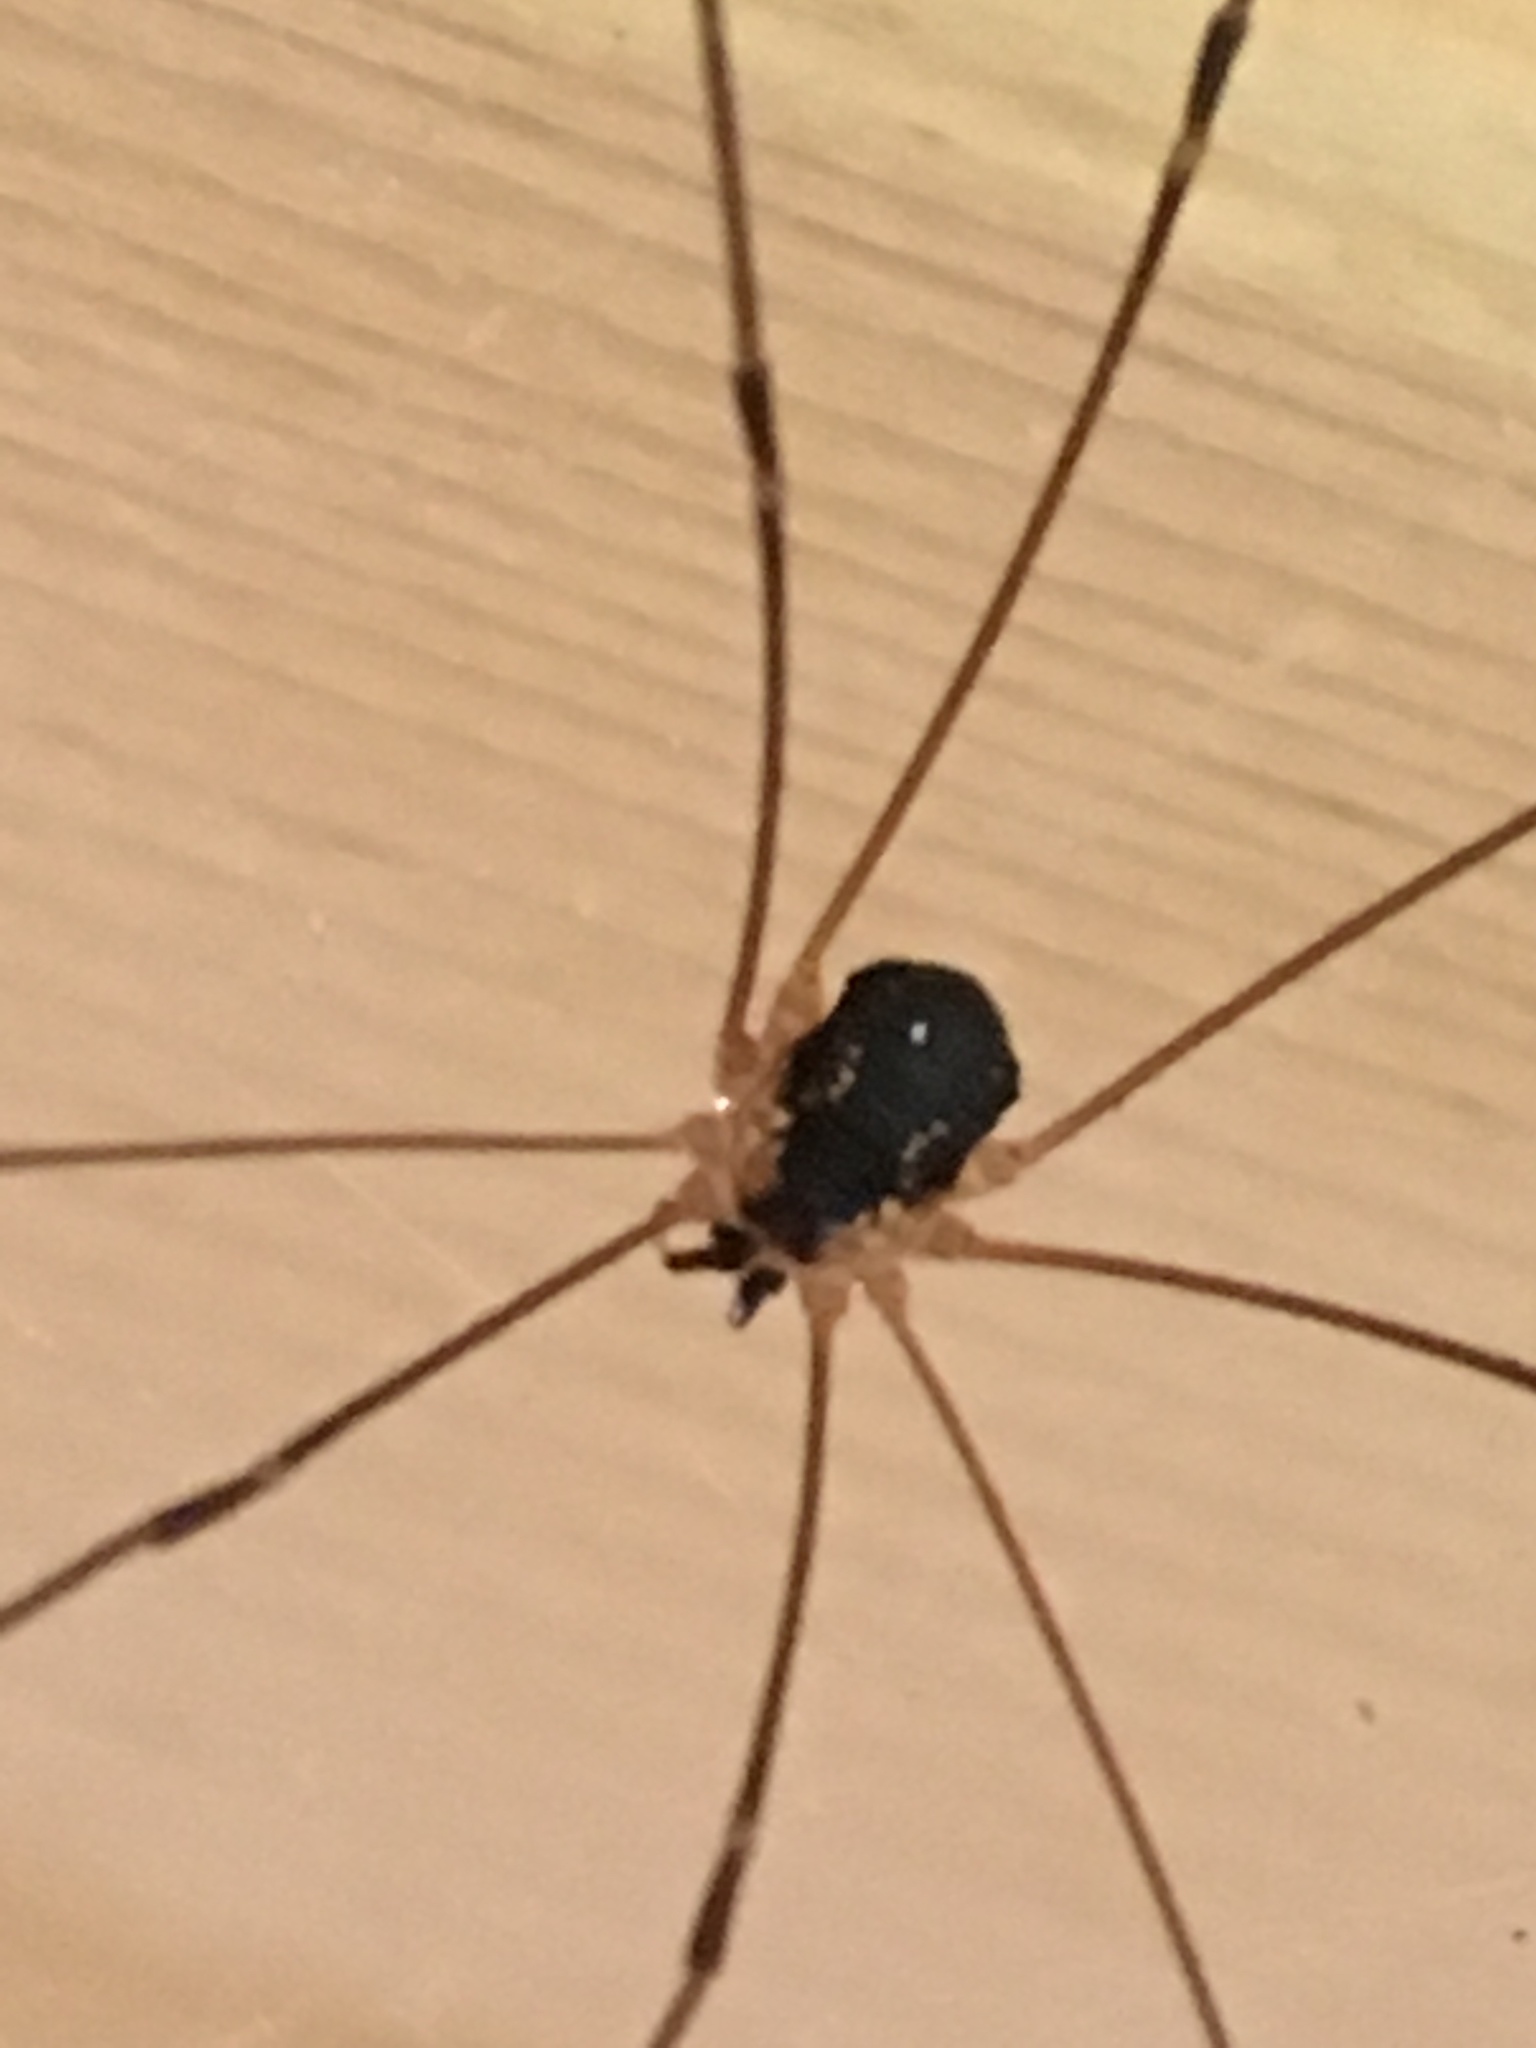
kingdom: Animalia
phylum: Arthropoda
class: Arachnida
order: Opiliones
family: Sclerosomatidae
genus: Leiobunum
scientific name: Leiobunum rupestre
